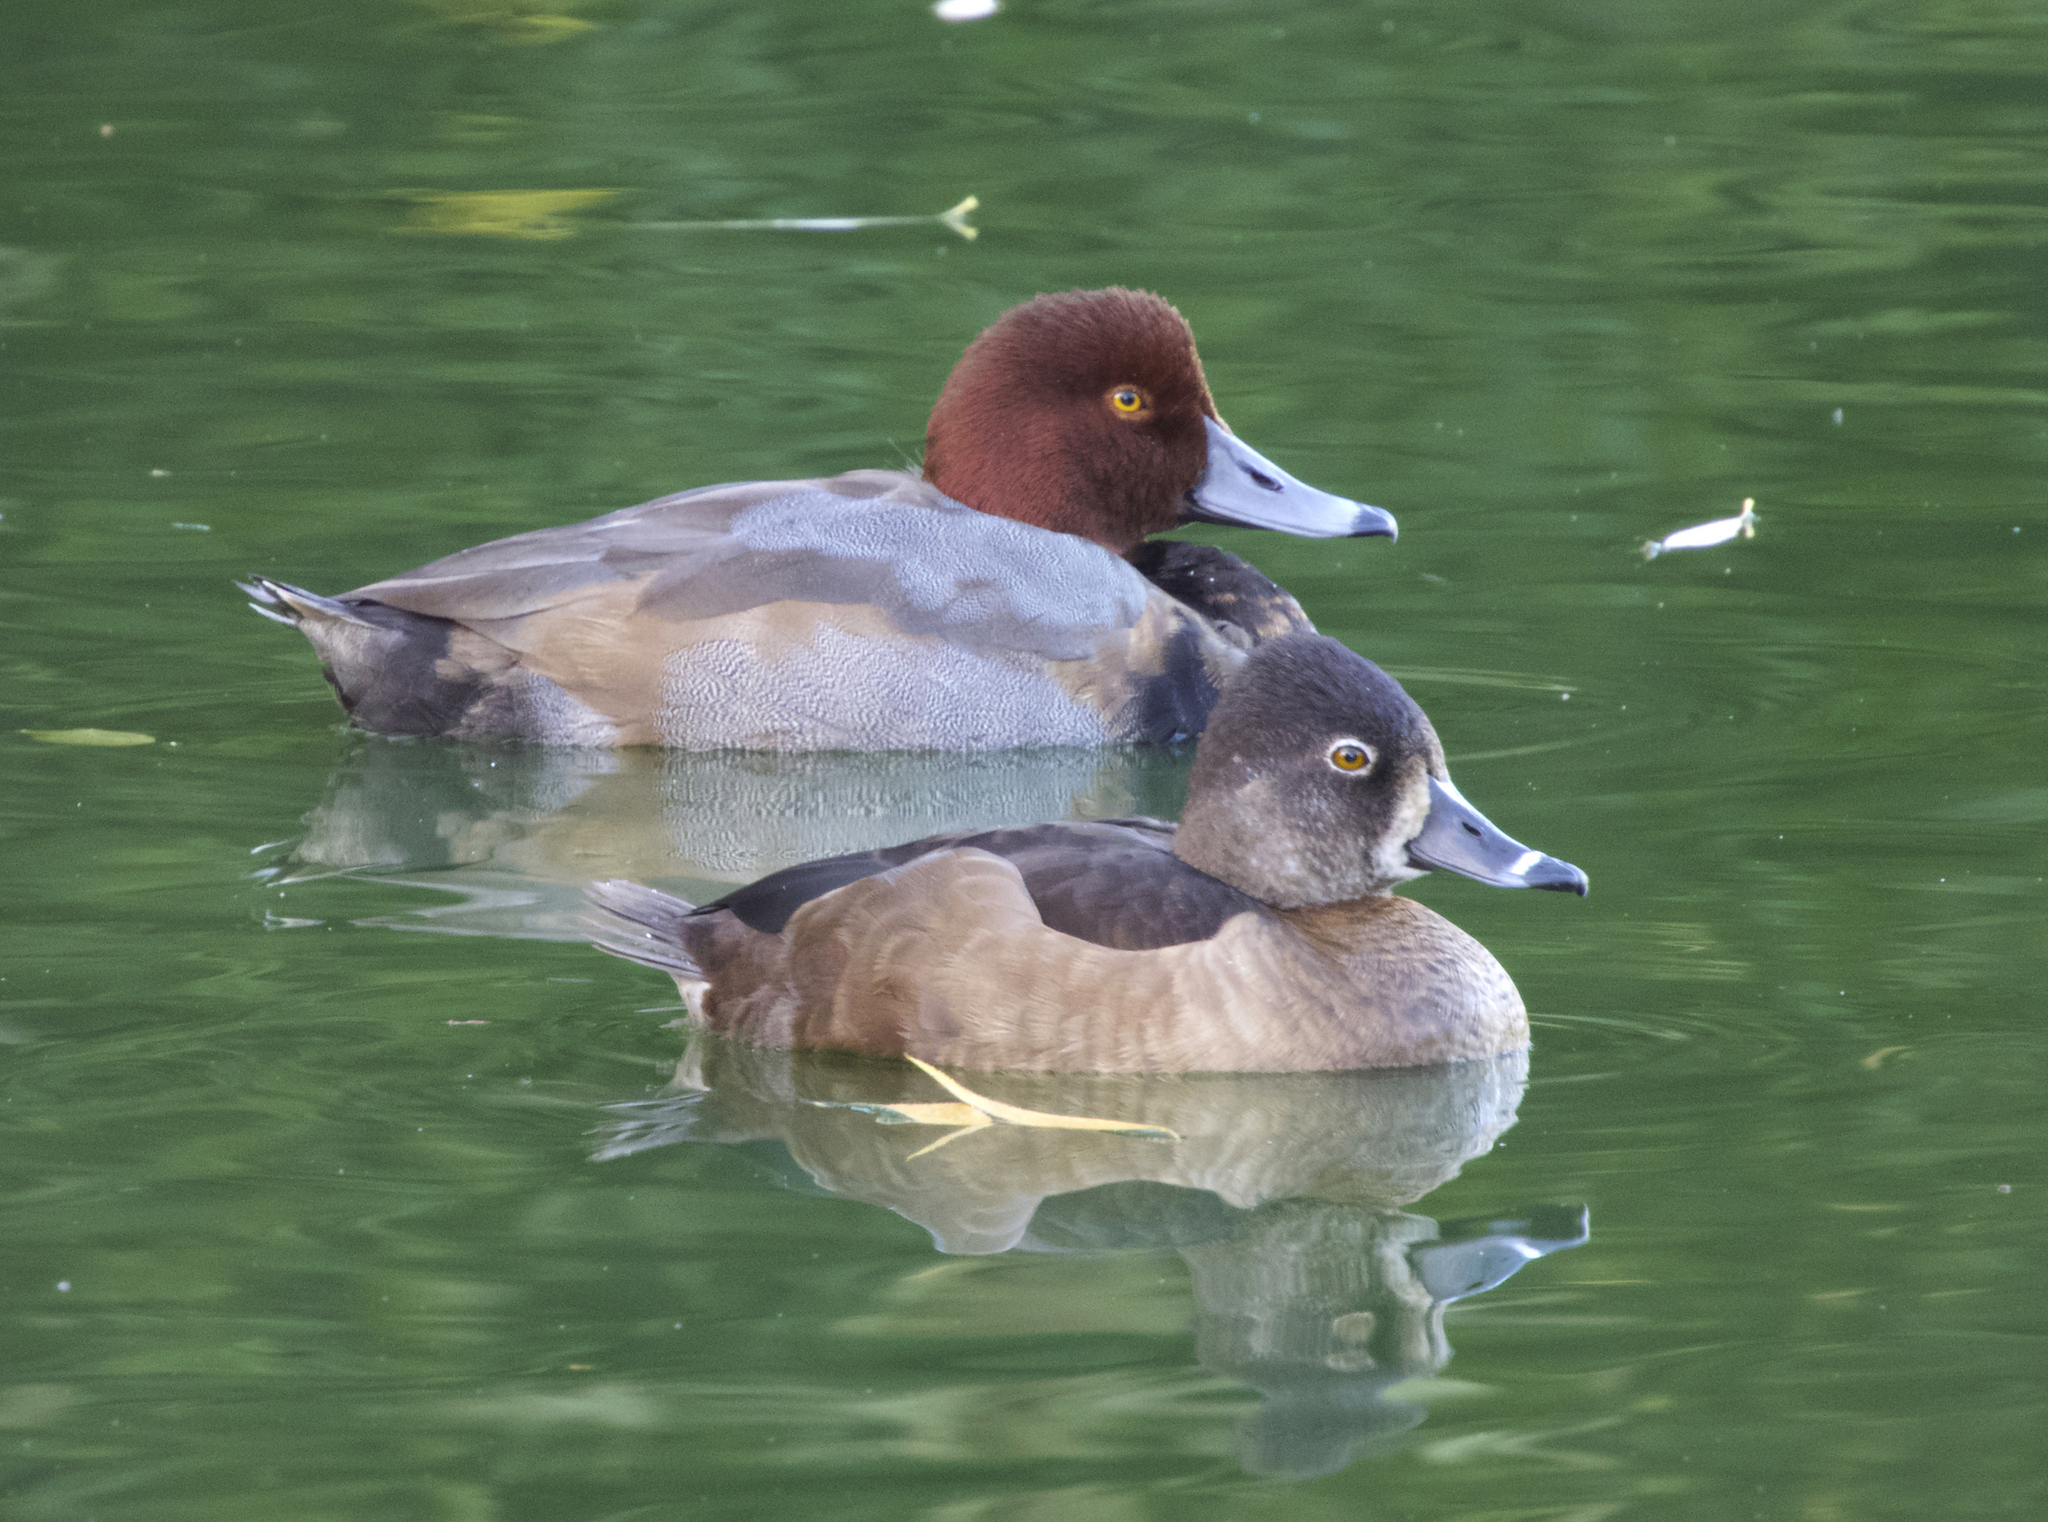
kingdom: Animalia
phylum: Chordata
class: Aves
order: Anseriformes
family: Anatidae
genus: Aythya
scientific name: Aythya americana
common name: Redhead
